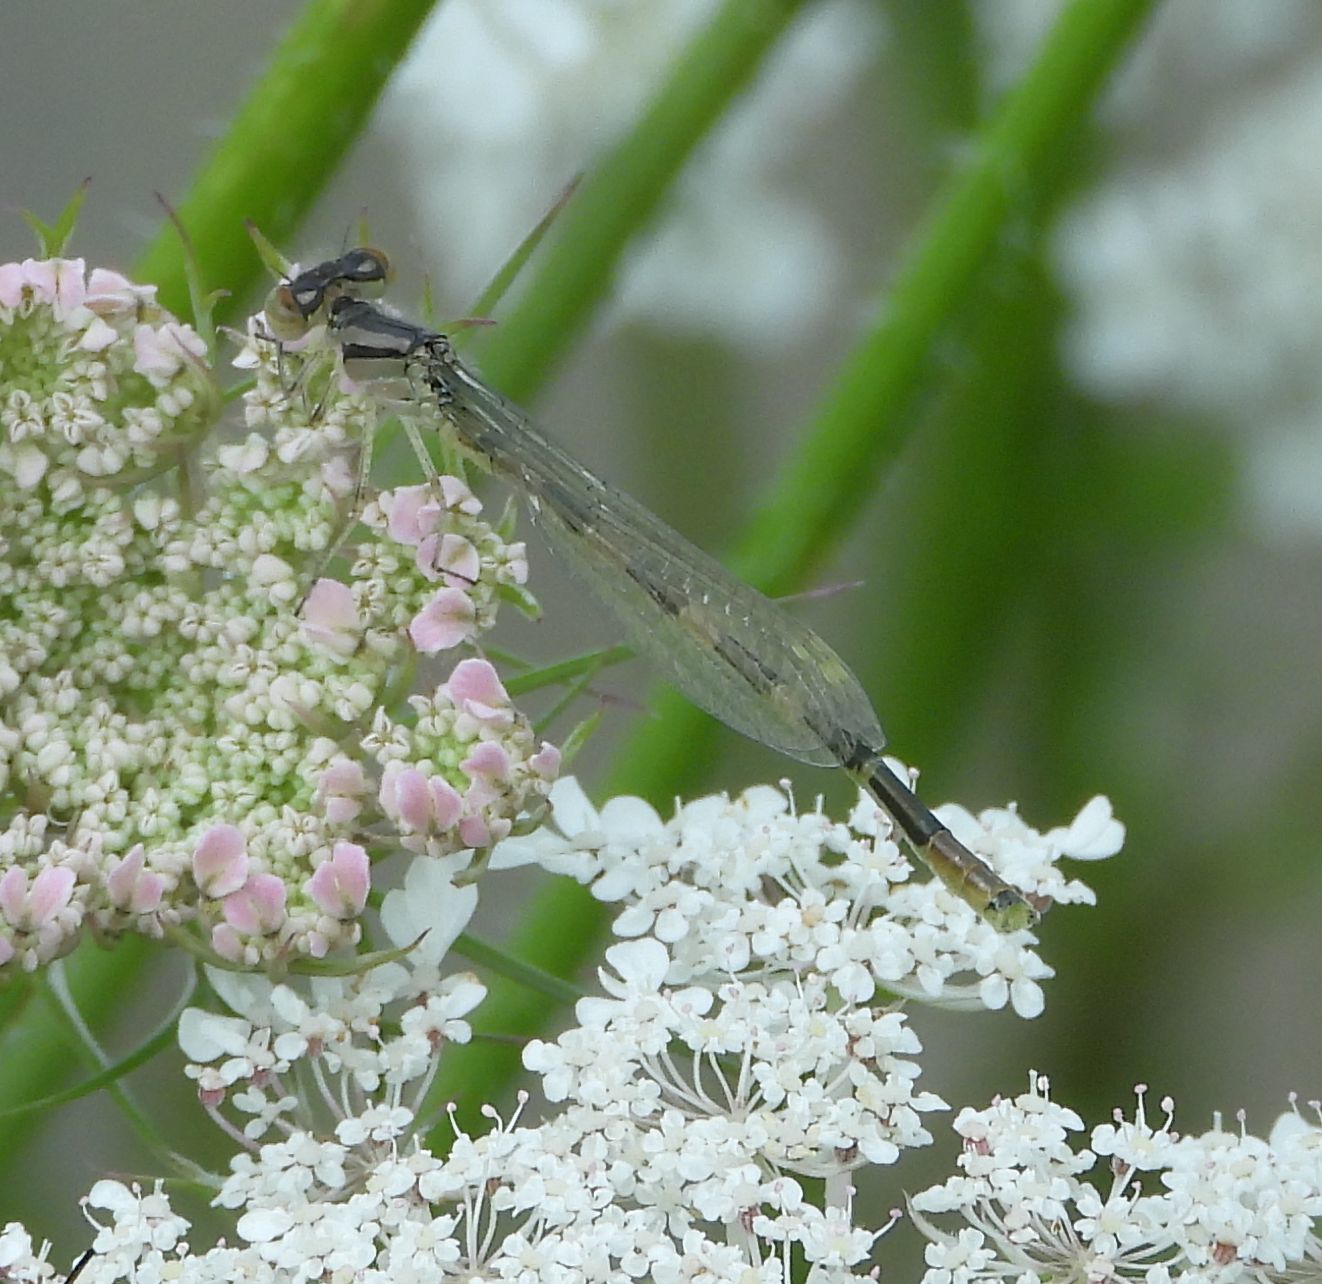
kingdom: Animalia
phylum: Arthropoda
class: Insecta
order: Odonata
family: Coenagrionidae
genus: Enallagma
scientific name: Enallagma carunculatum
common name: Tule bluet
